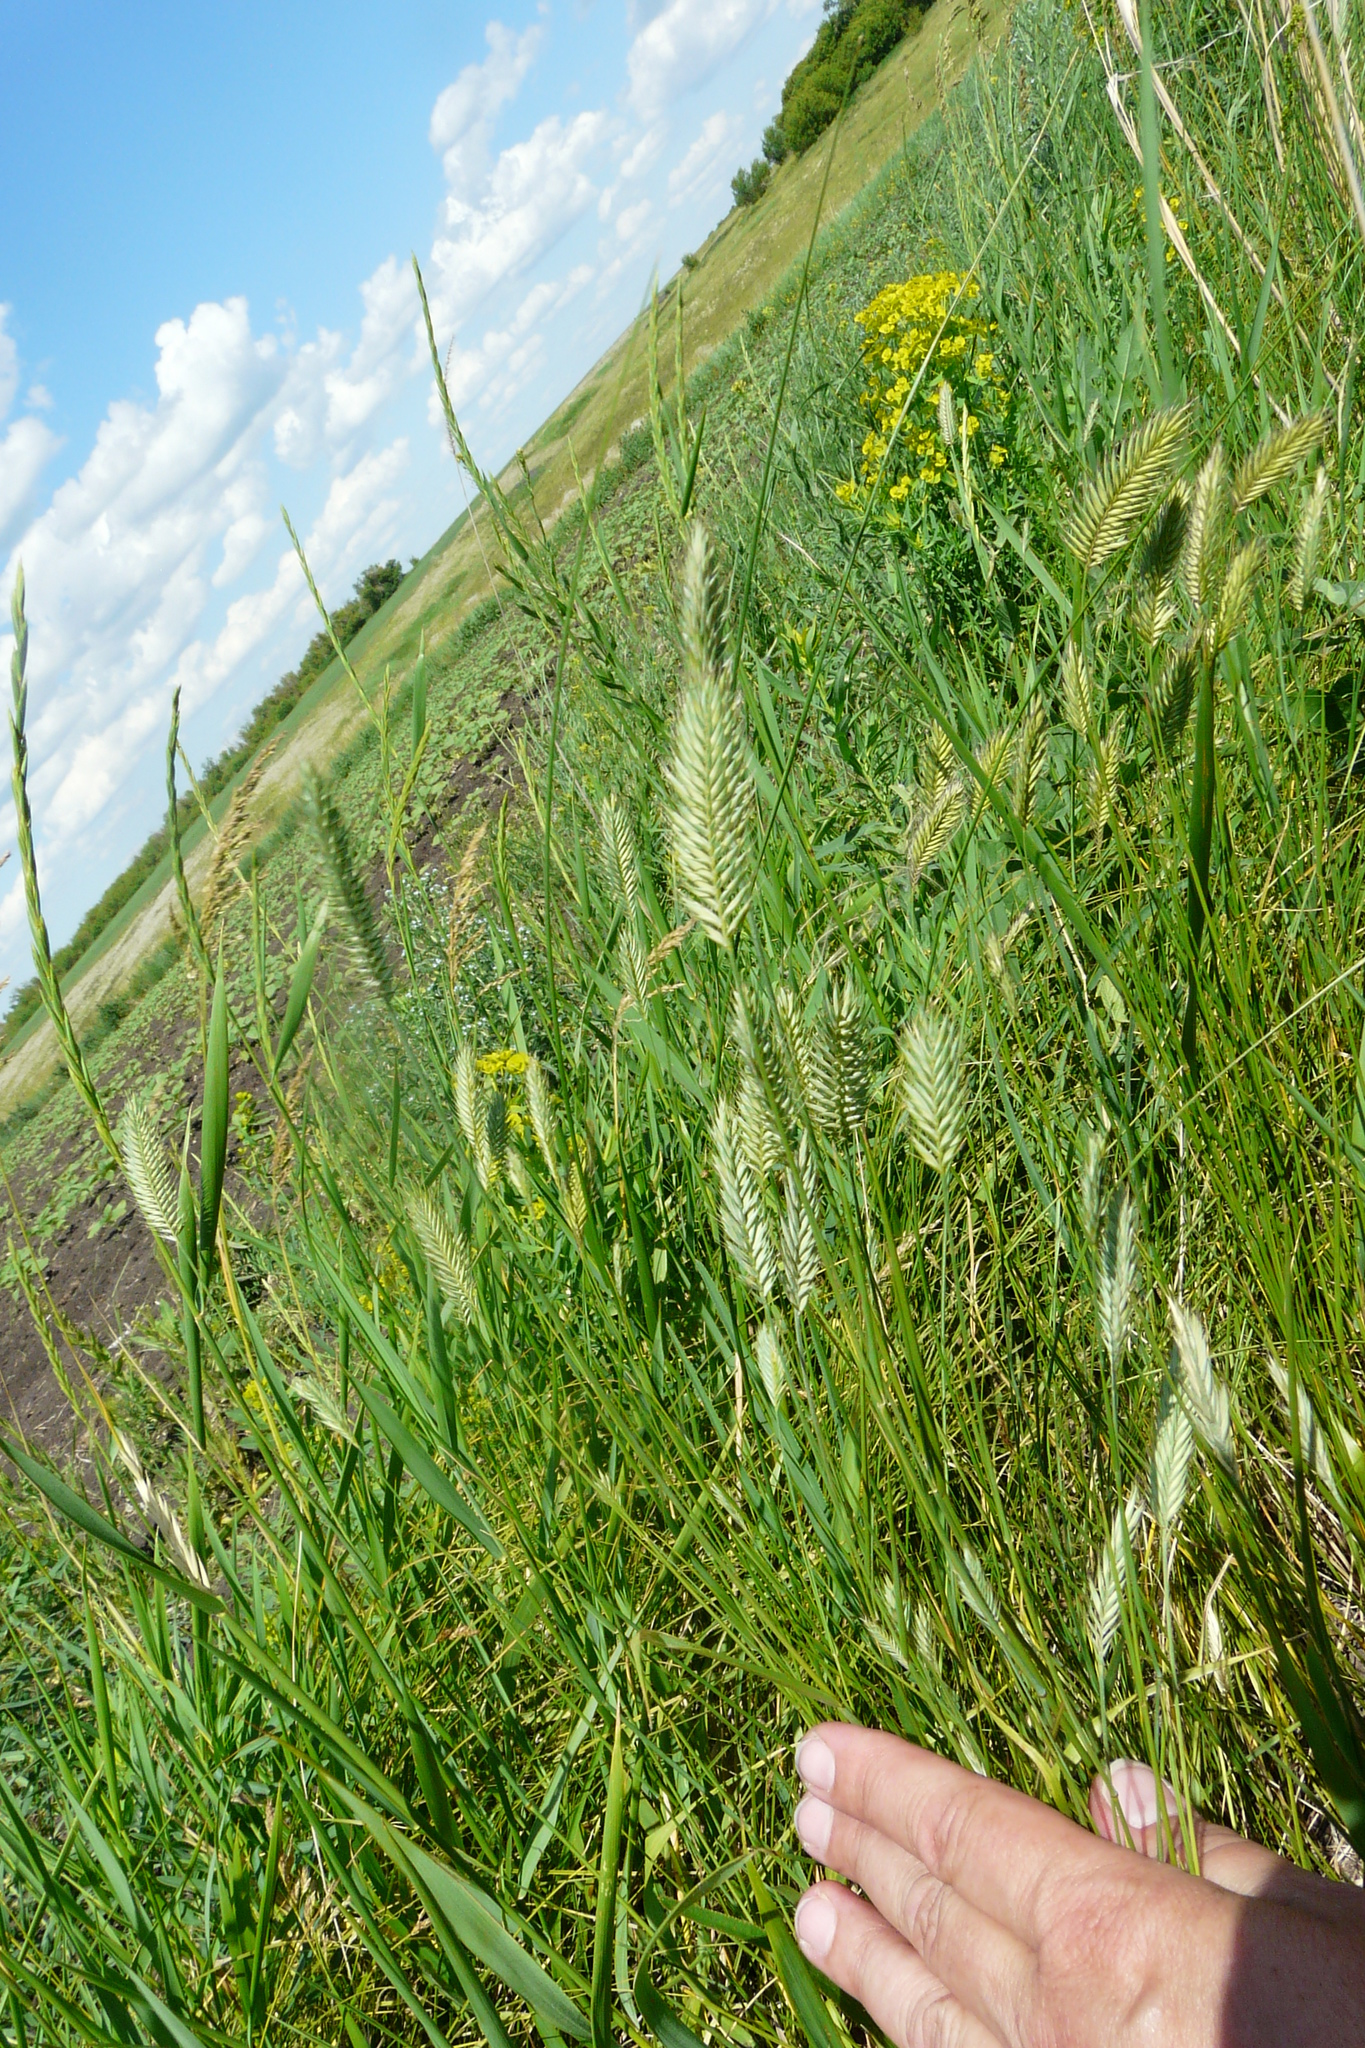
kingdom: Plantae
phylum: Tracheophyta
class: Liliopsida
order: Poales
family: Poaceae
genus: Agropyron
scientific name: Agropyron cristatum
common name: Crested wheatgrass
